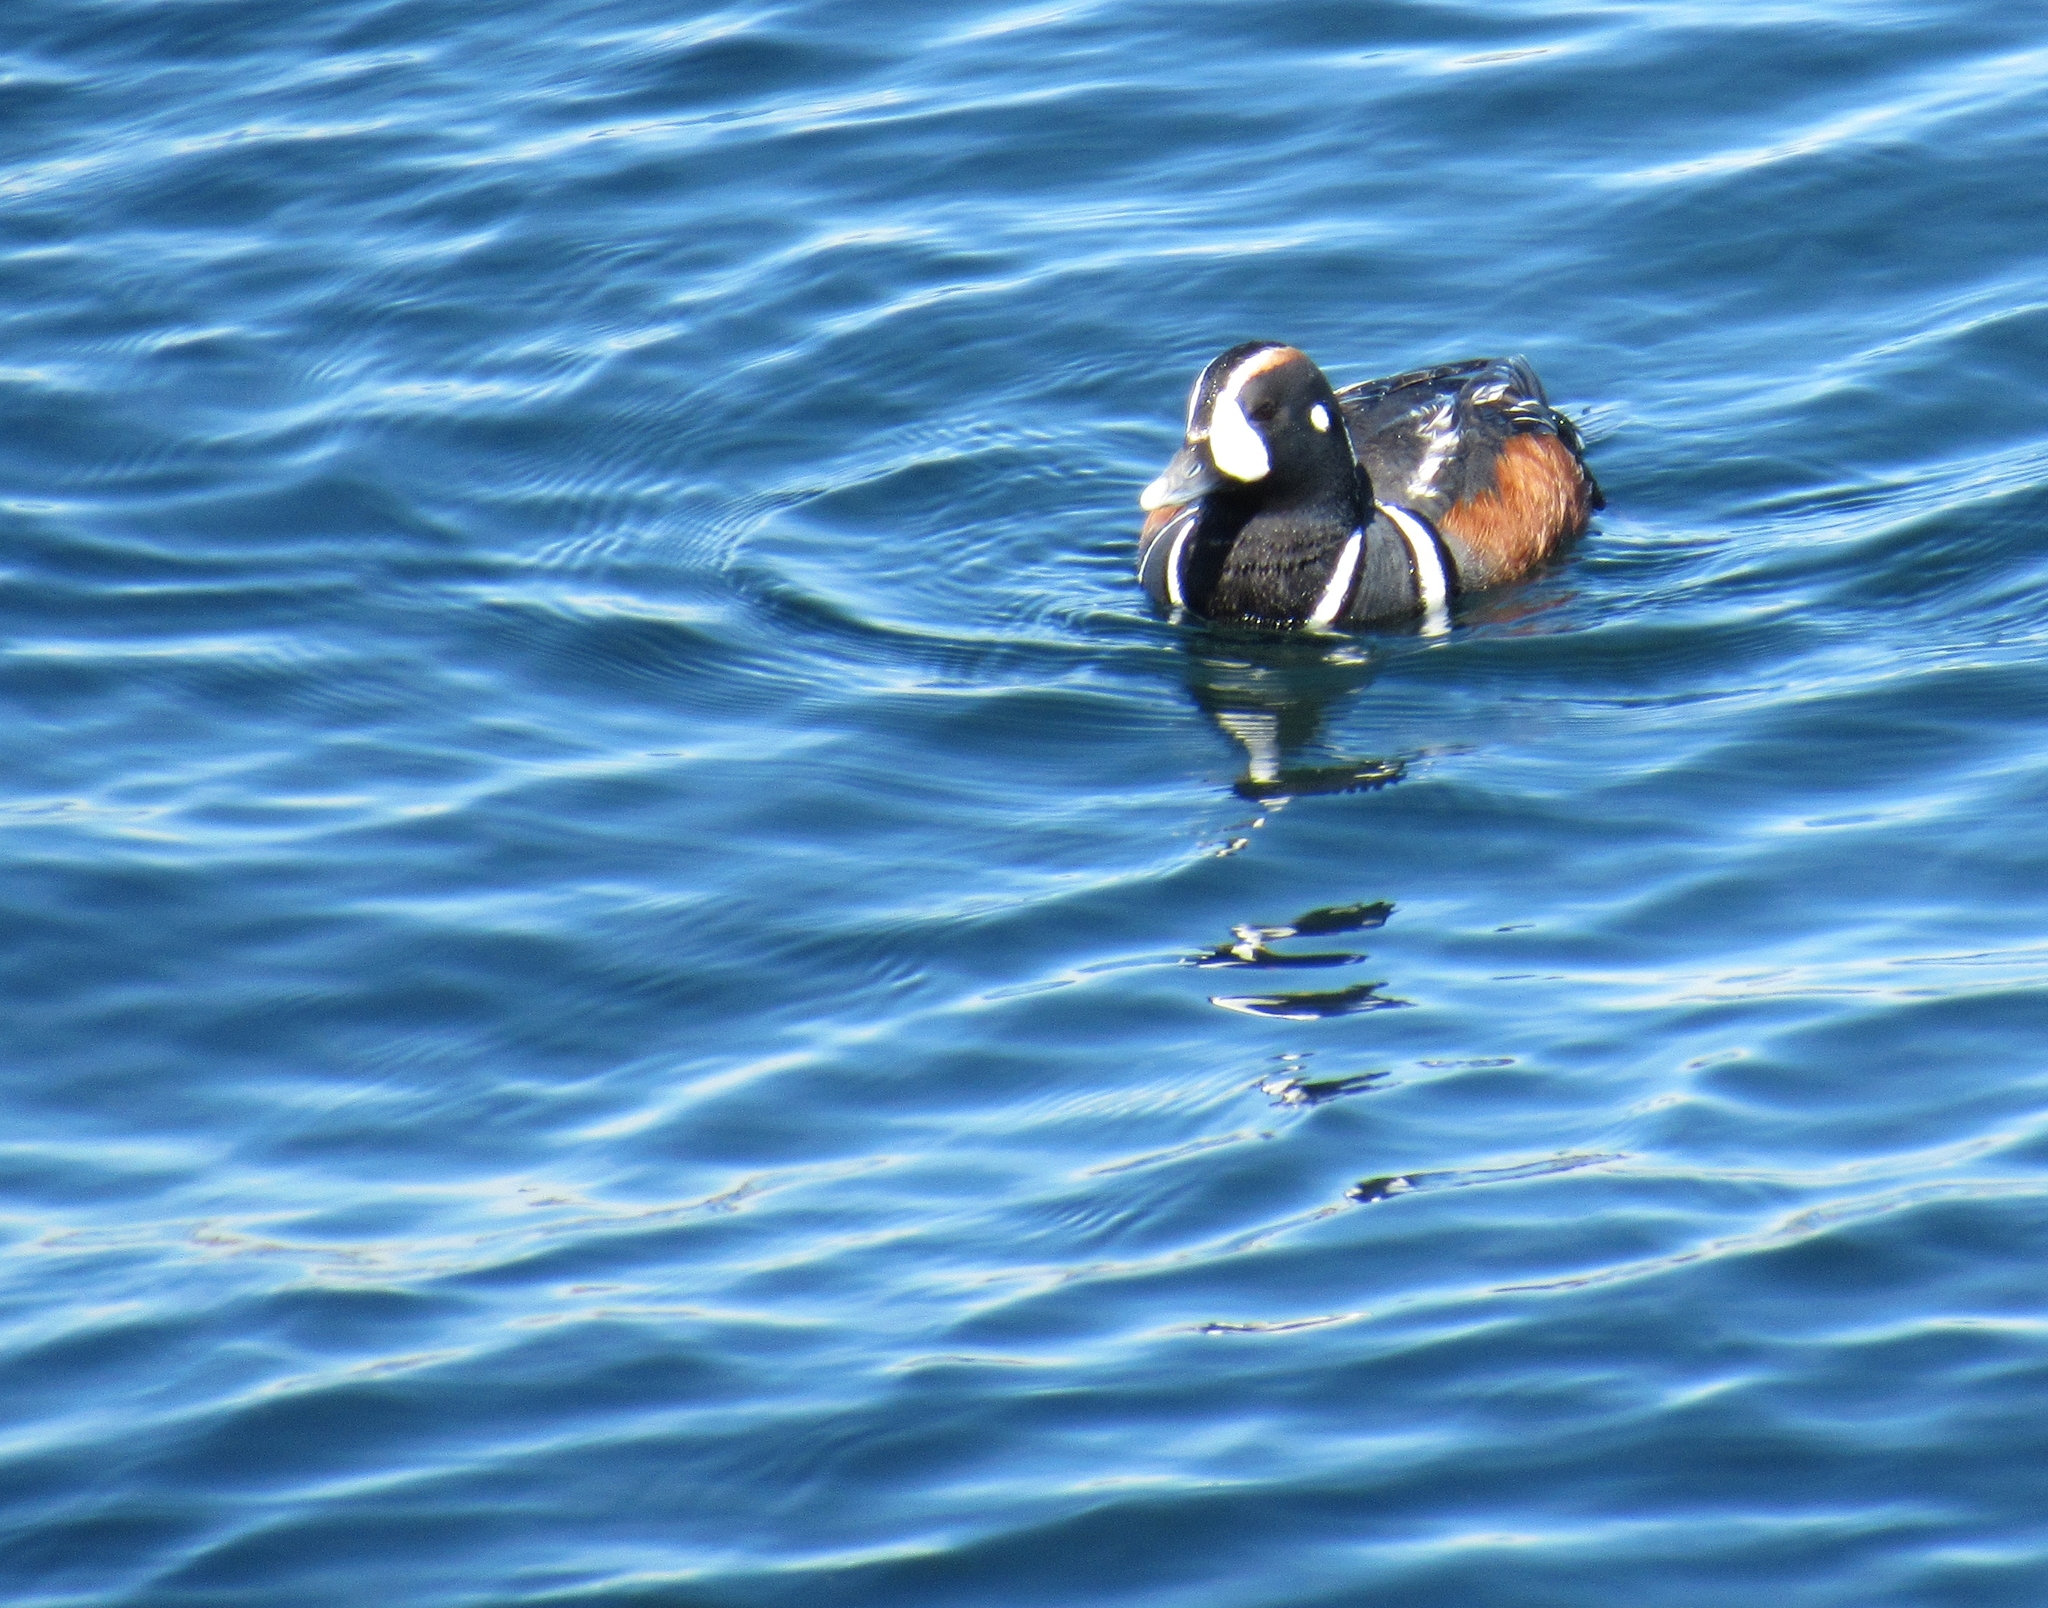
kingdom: Animalia
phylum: Chordata
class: Aves
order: Anseriformes
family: Anatidae
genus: Histrionicus
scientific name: Histrionicus histrionicus
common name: Harlequin duck
